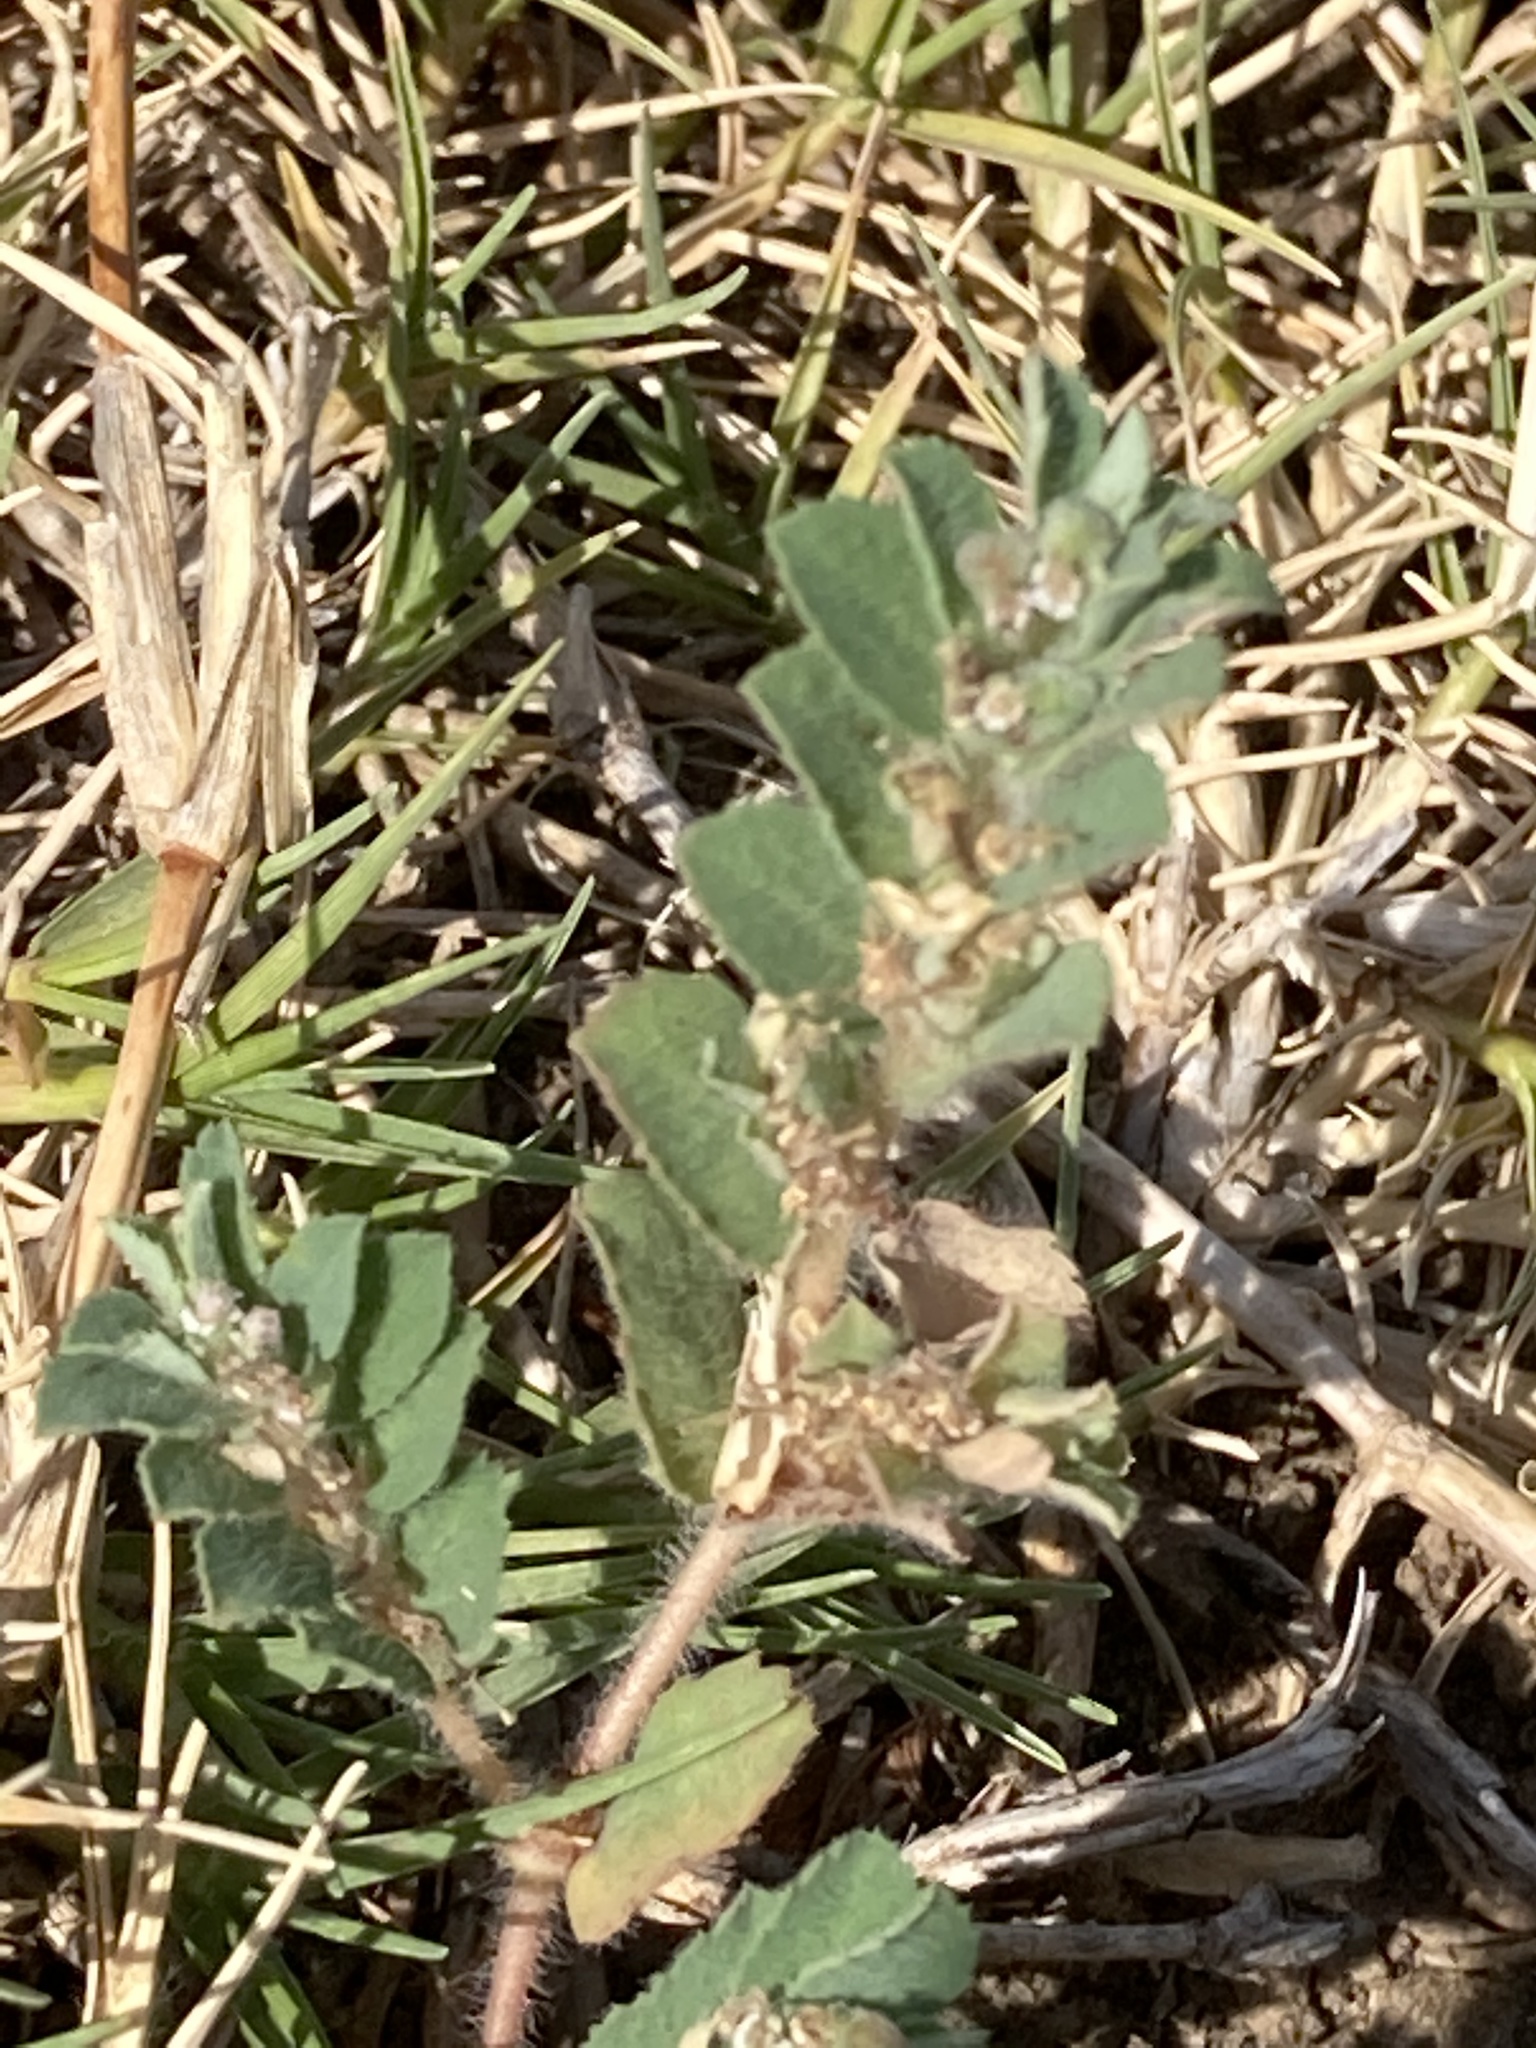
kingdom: Plantae
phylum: Tracheophyta
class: Magnoliopsida
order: Malpighiales
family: Euphorbiaceae
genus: Euphorbia
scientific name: Euphorbia stictospora
